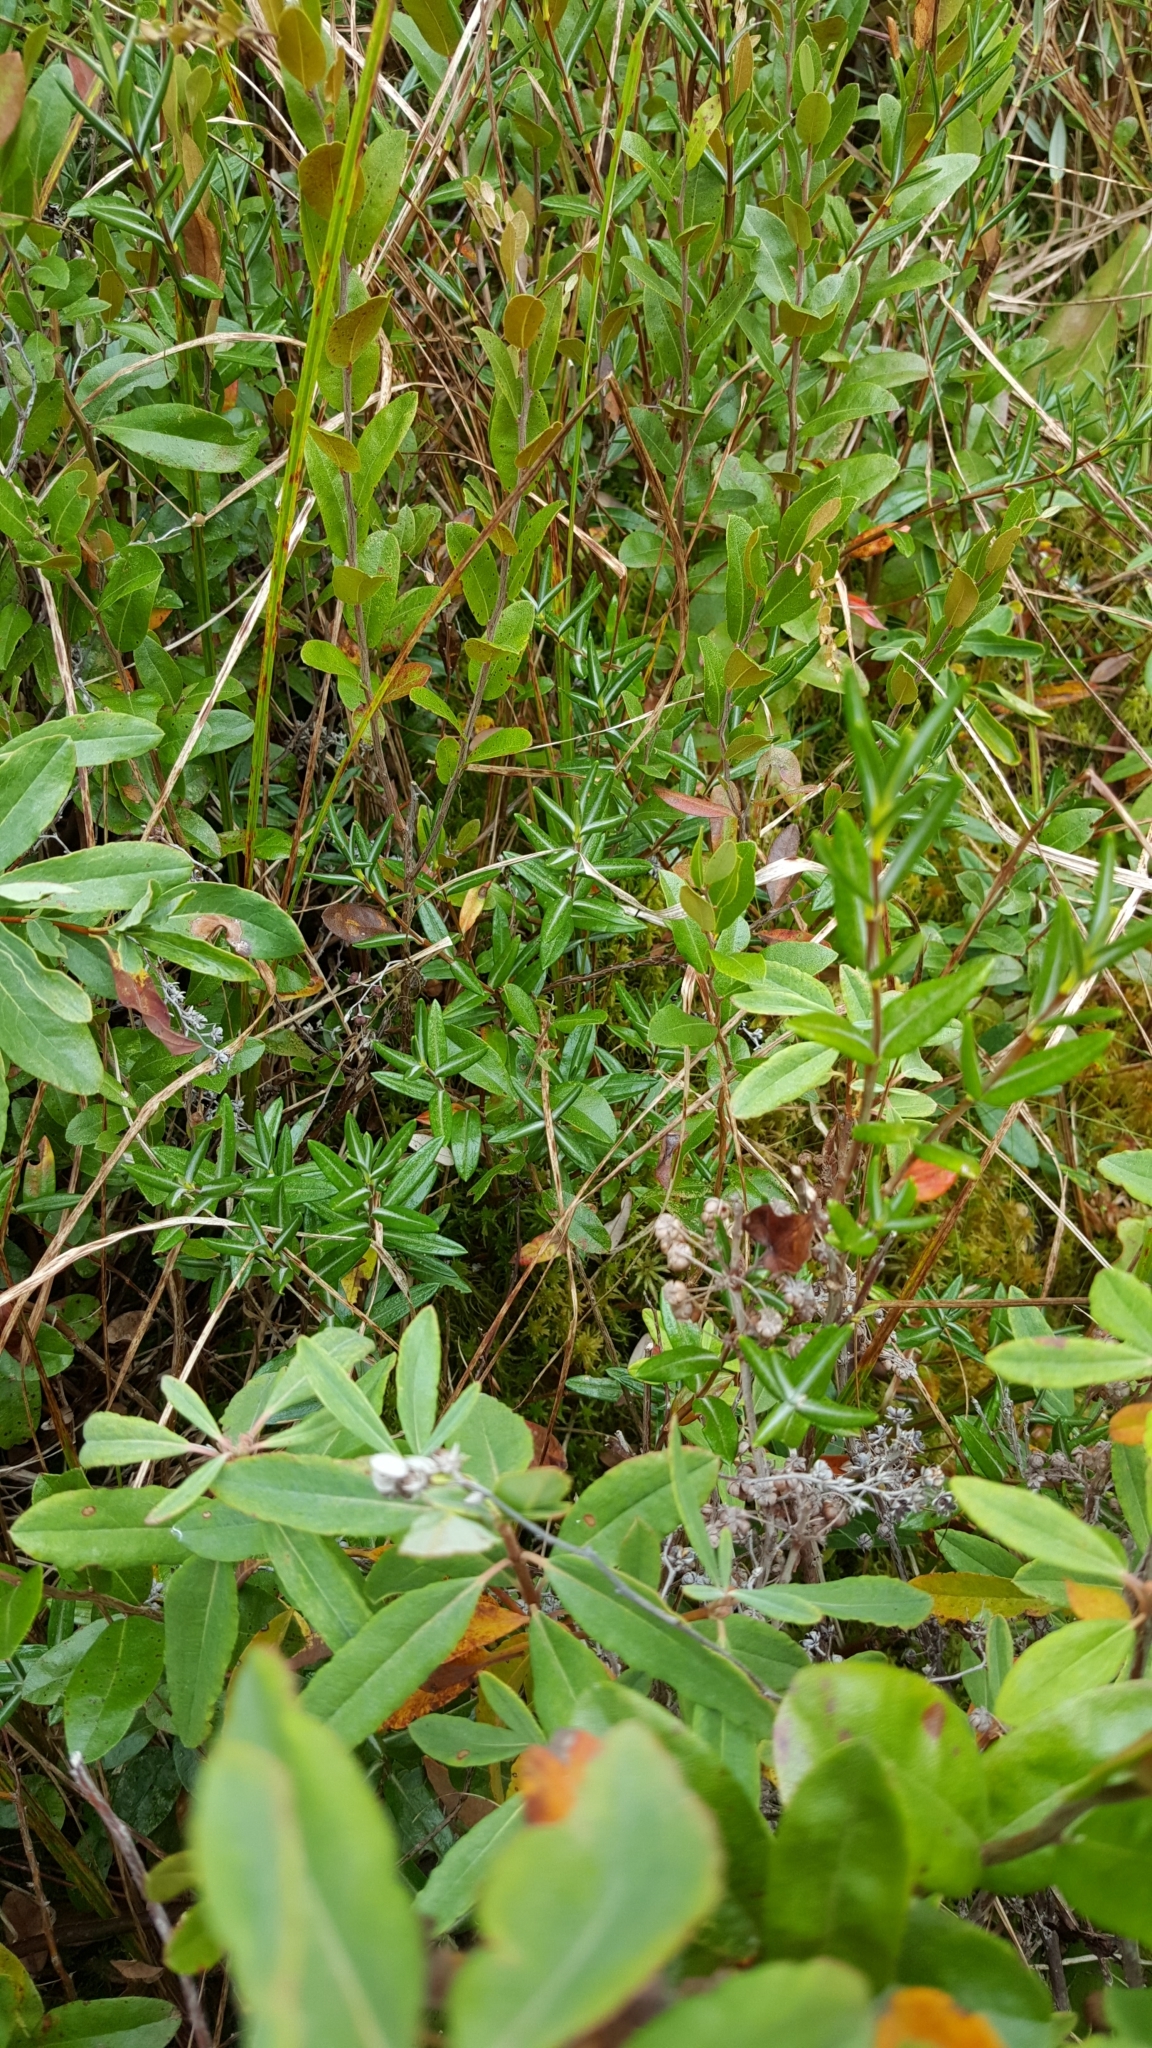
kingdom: Plantae
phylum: Tracheophyta
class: Magnoliopsida
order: Ericales
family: Ericaceae
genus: Kalmia
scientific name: Kalmia polifolia
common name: Bog-laurel
